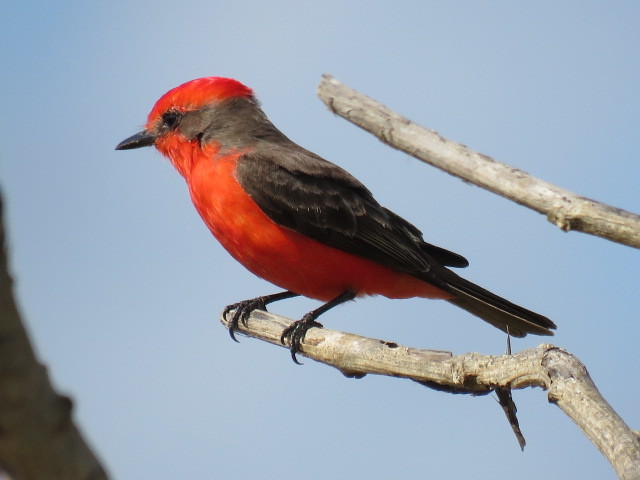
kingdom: Animalia
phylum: Chordata
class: Aves
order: Passeriformes
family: Tyrannidae
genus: Pyrocephalus
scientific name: Pyrocephalus rubinus
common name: Vermilion flycatcher
